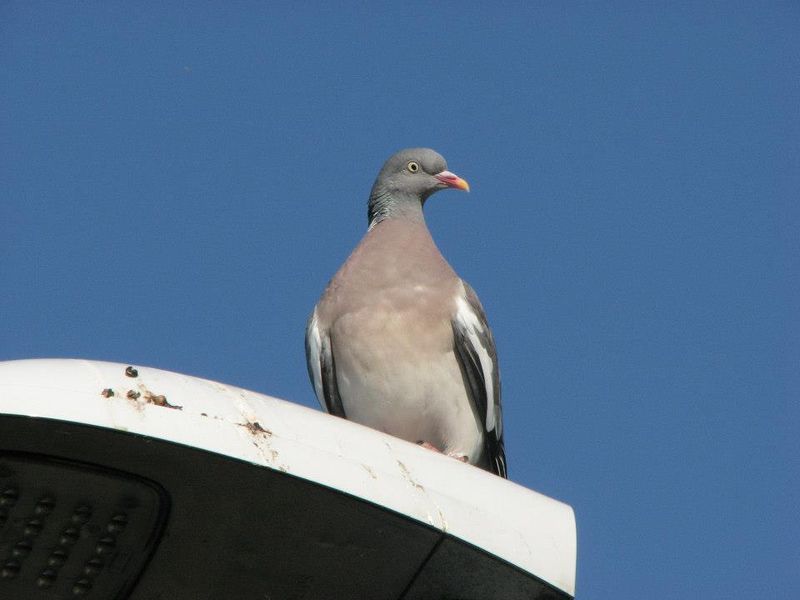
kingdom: Animalia
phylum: Chordata
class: Aves
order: Columbiformes
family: Columbidae
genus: Columba
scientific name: Columba palumbus
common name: Common wood pigeon
